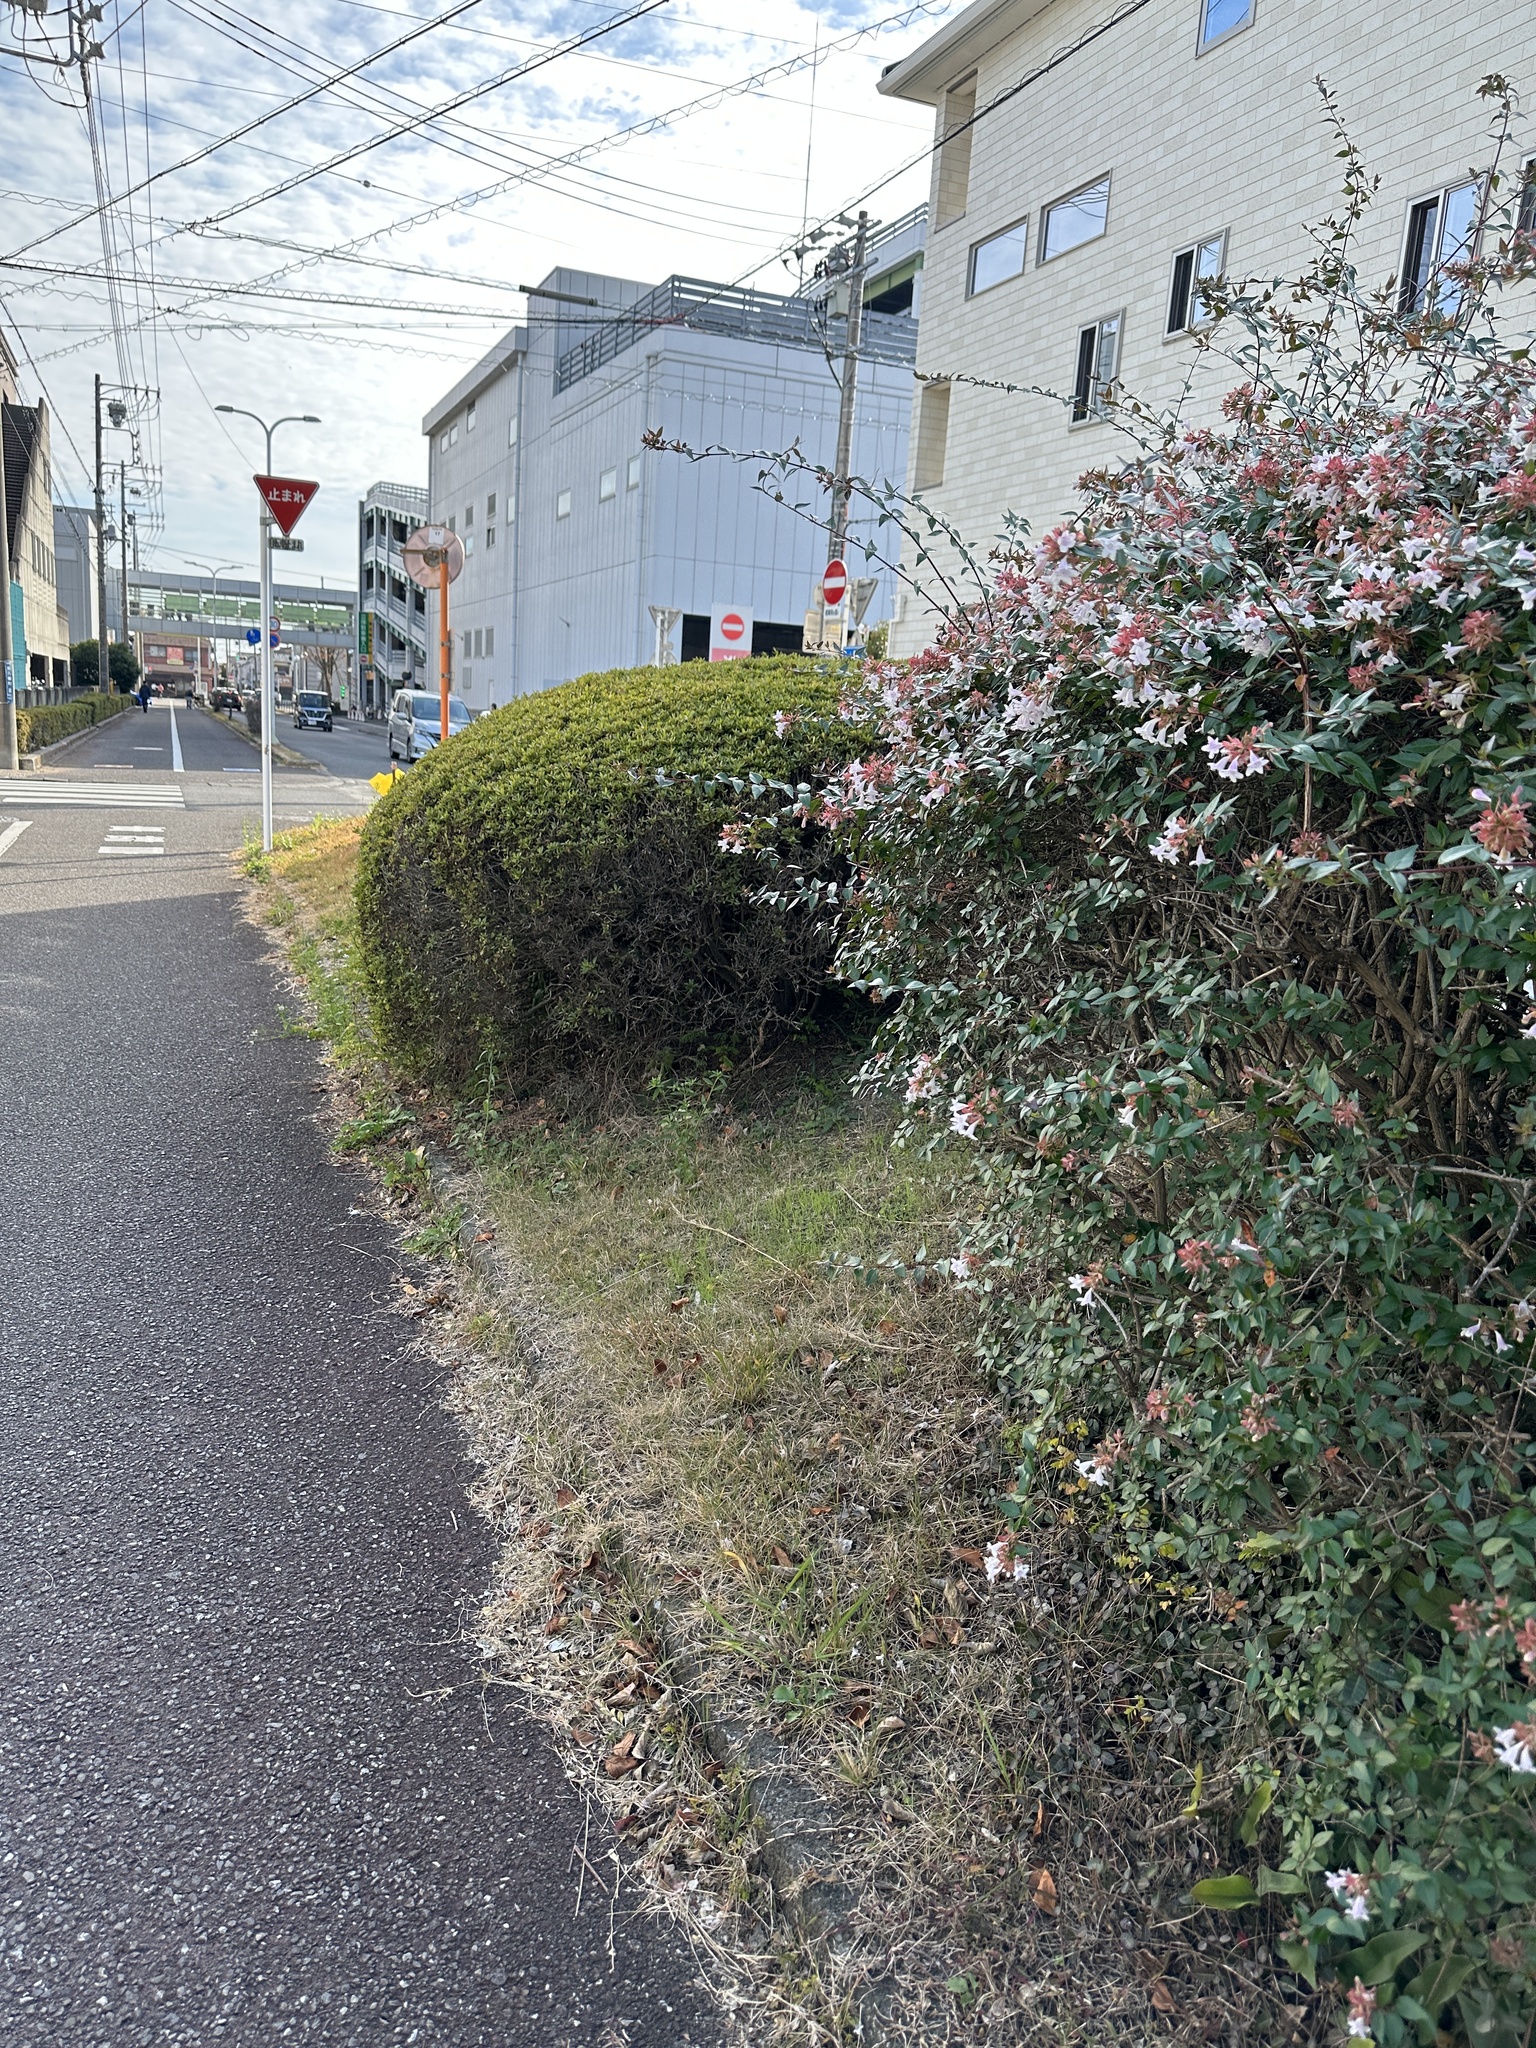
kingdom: Animalia
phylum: Arthropoda
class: Insecta
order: Orthoptera
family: Mogoplistidae
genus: Ornebius
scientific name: Ornebius kanetataki
